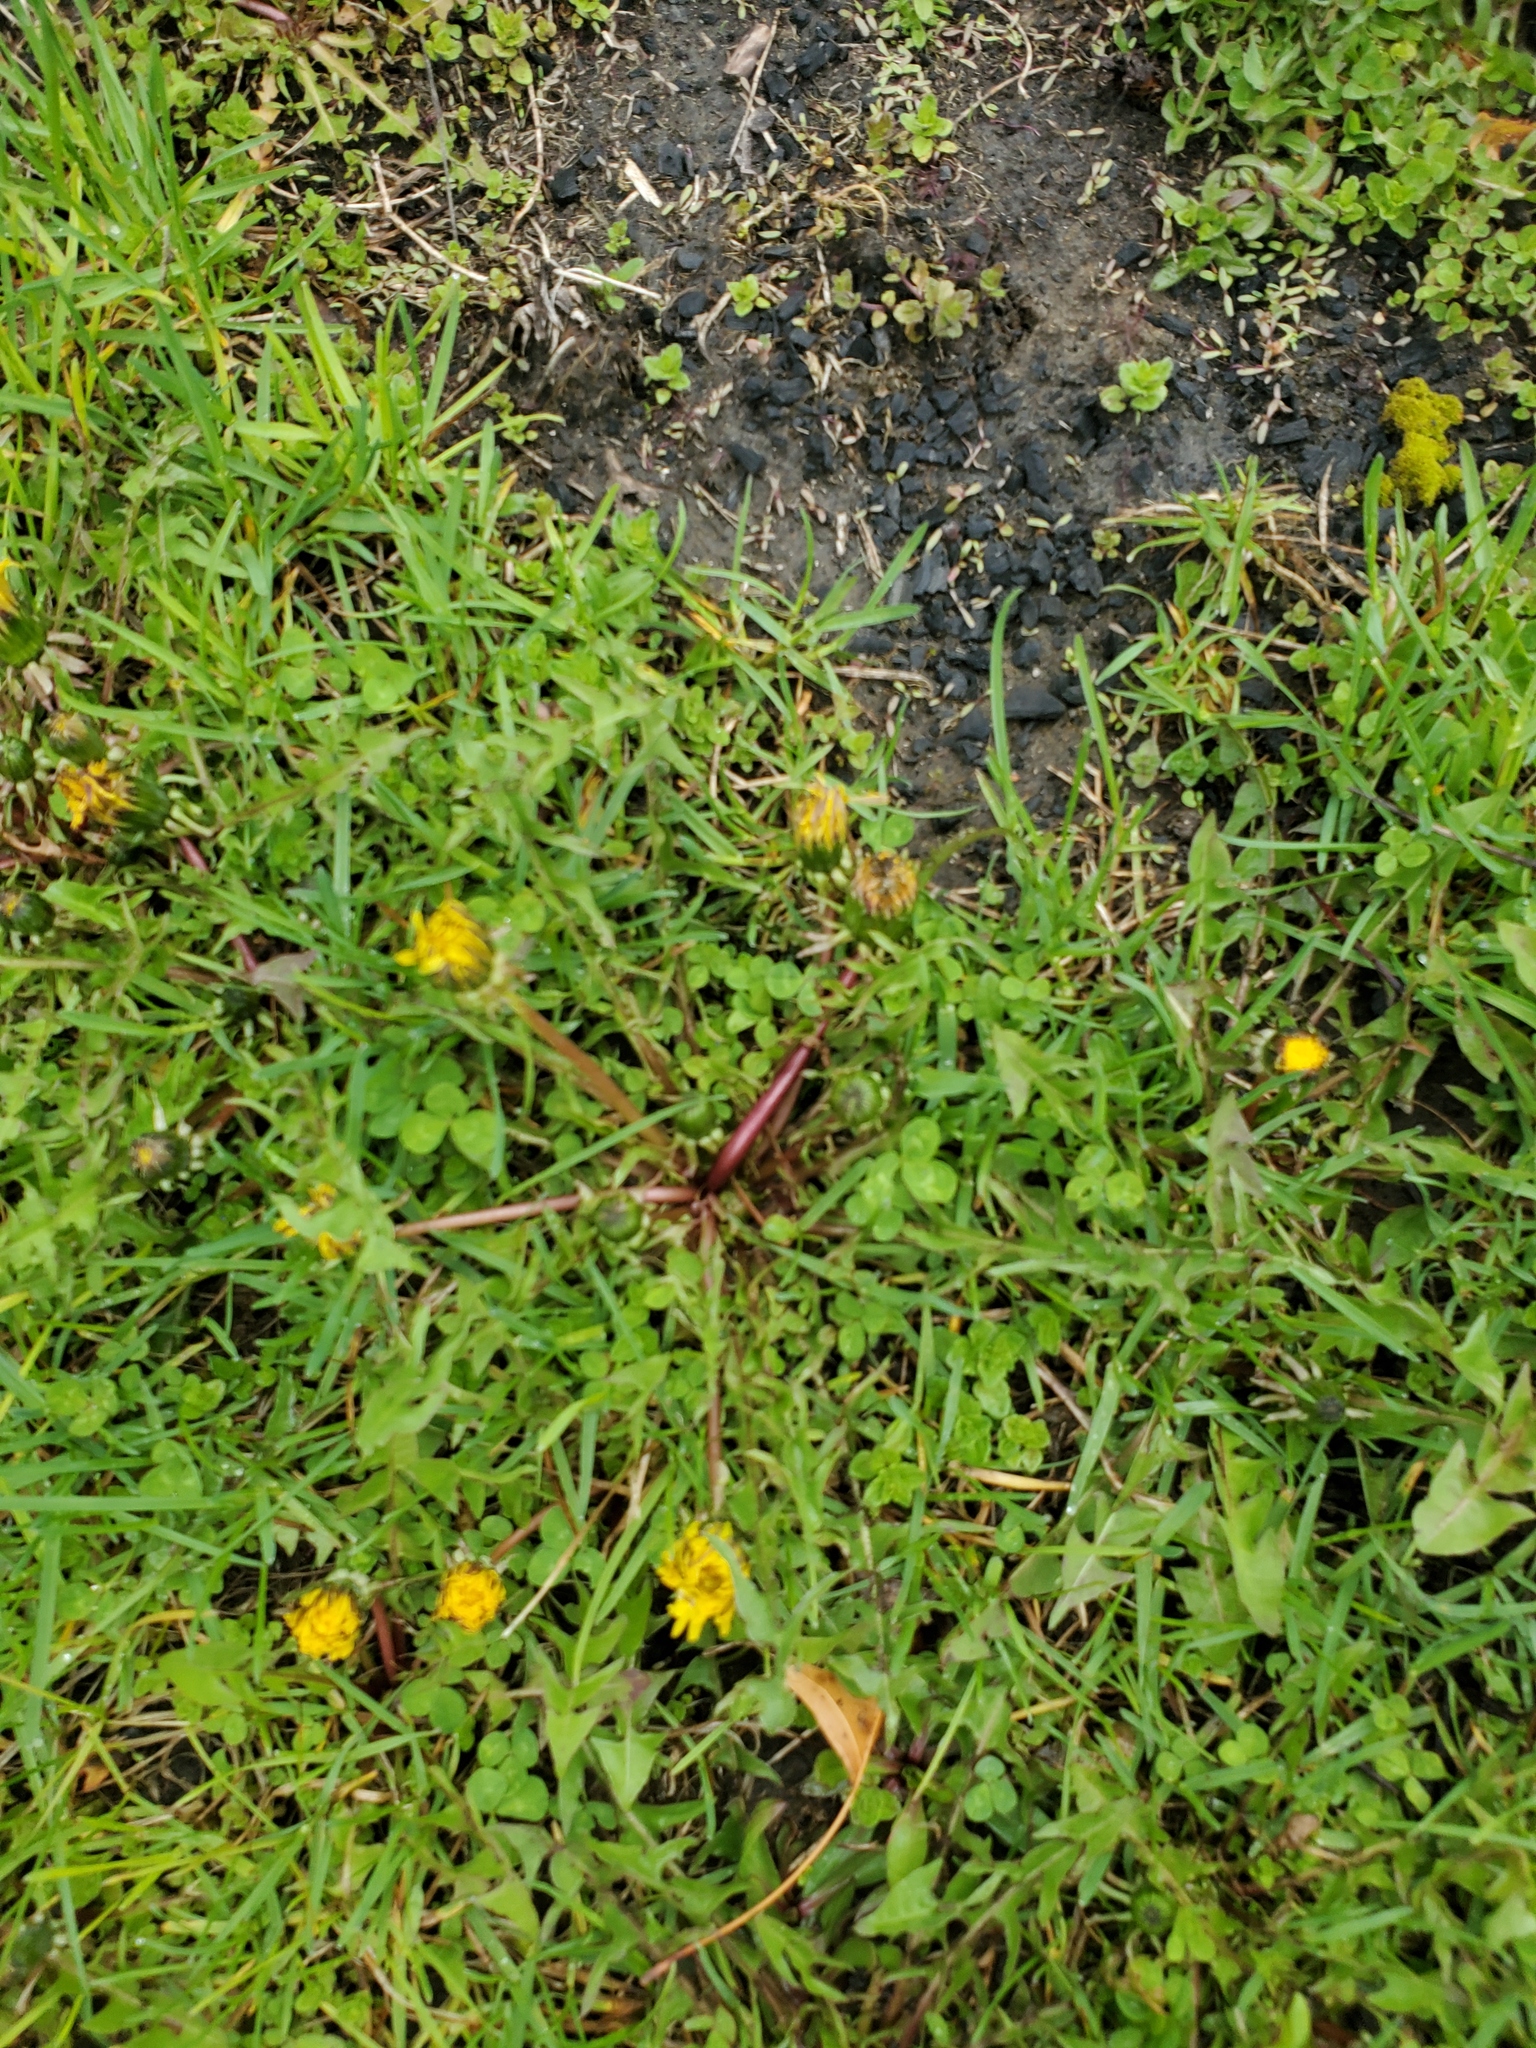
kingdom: Plantae
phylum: Tracheophyta
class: Magnoliopsida
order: Asterales
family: Asteraceae
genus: Taraxacum
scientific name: Taraxacum officinale
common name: Common dandelion
